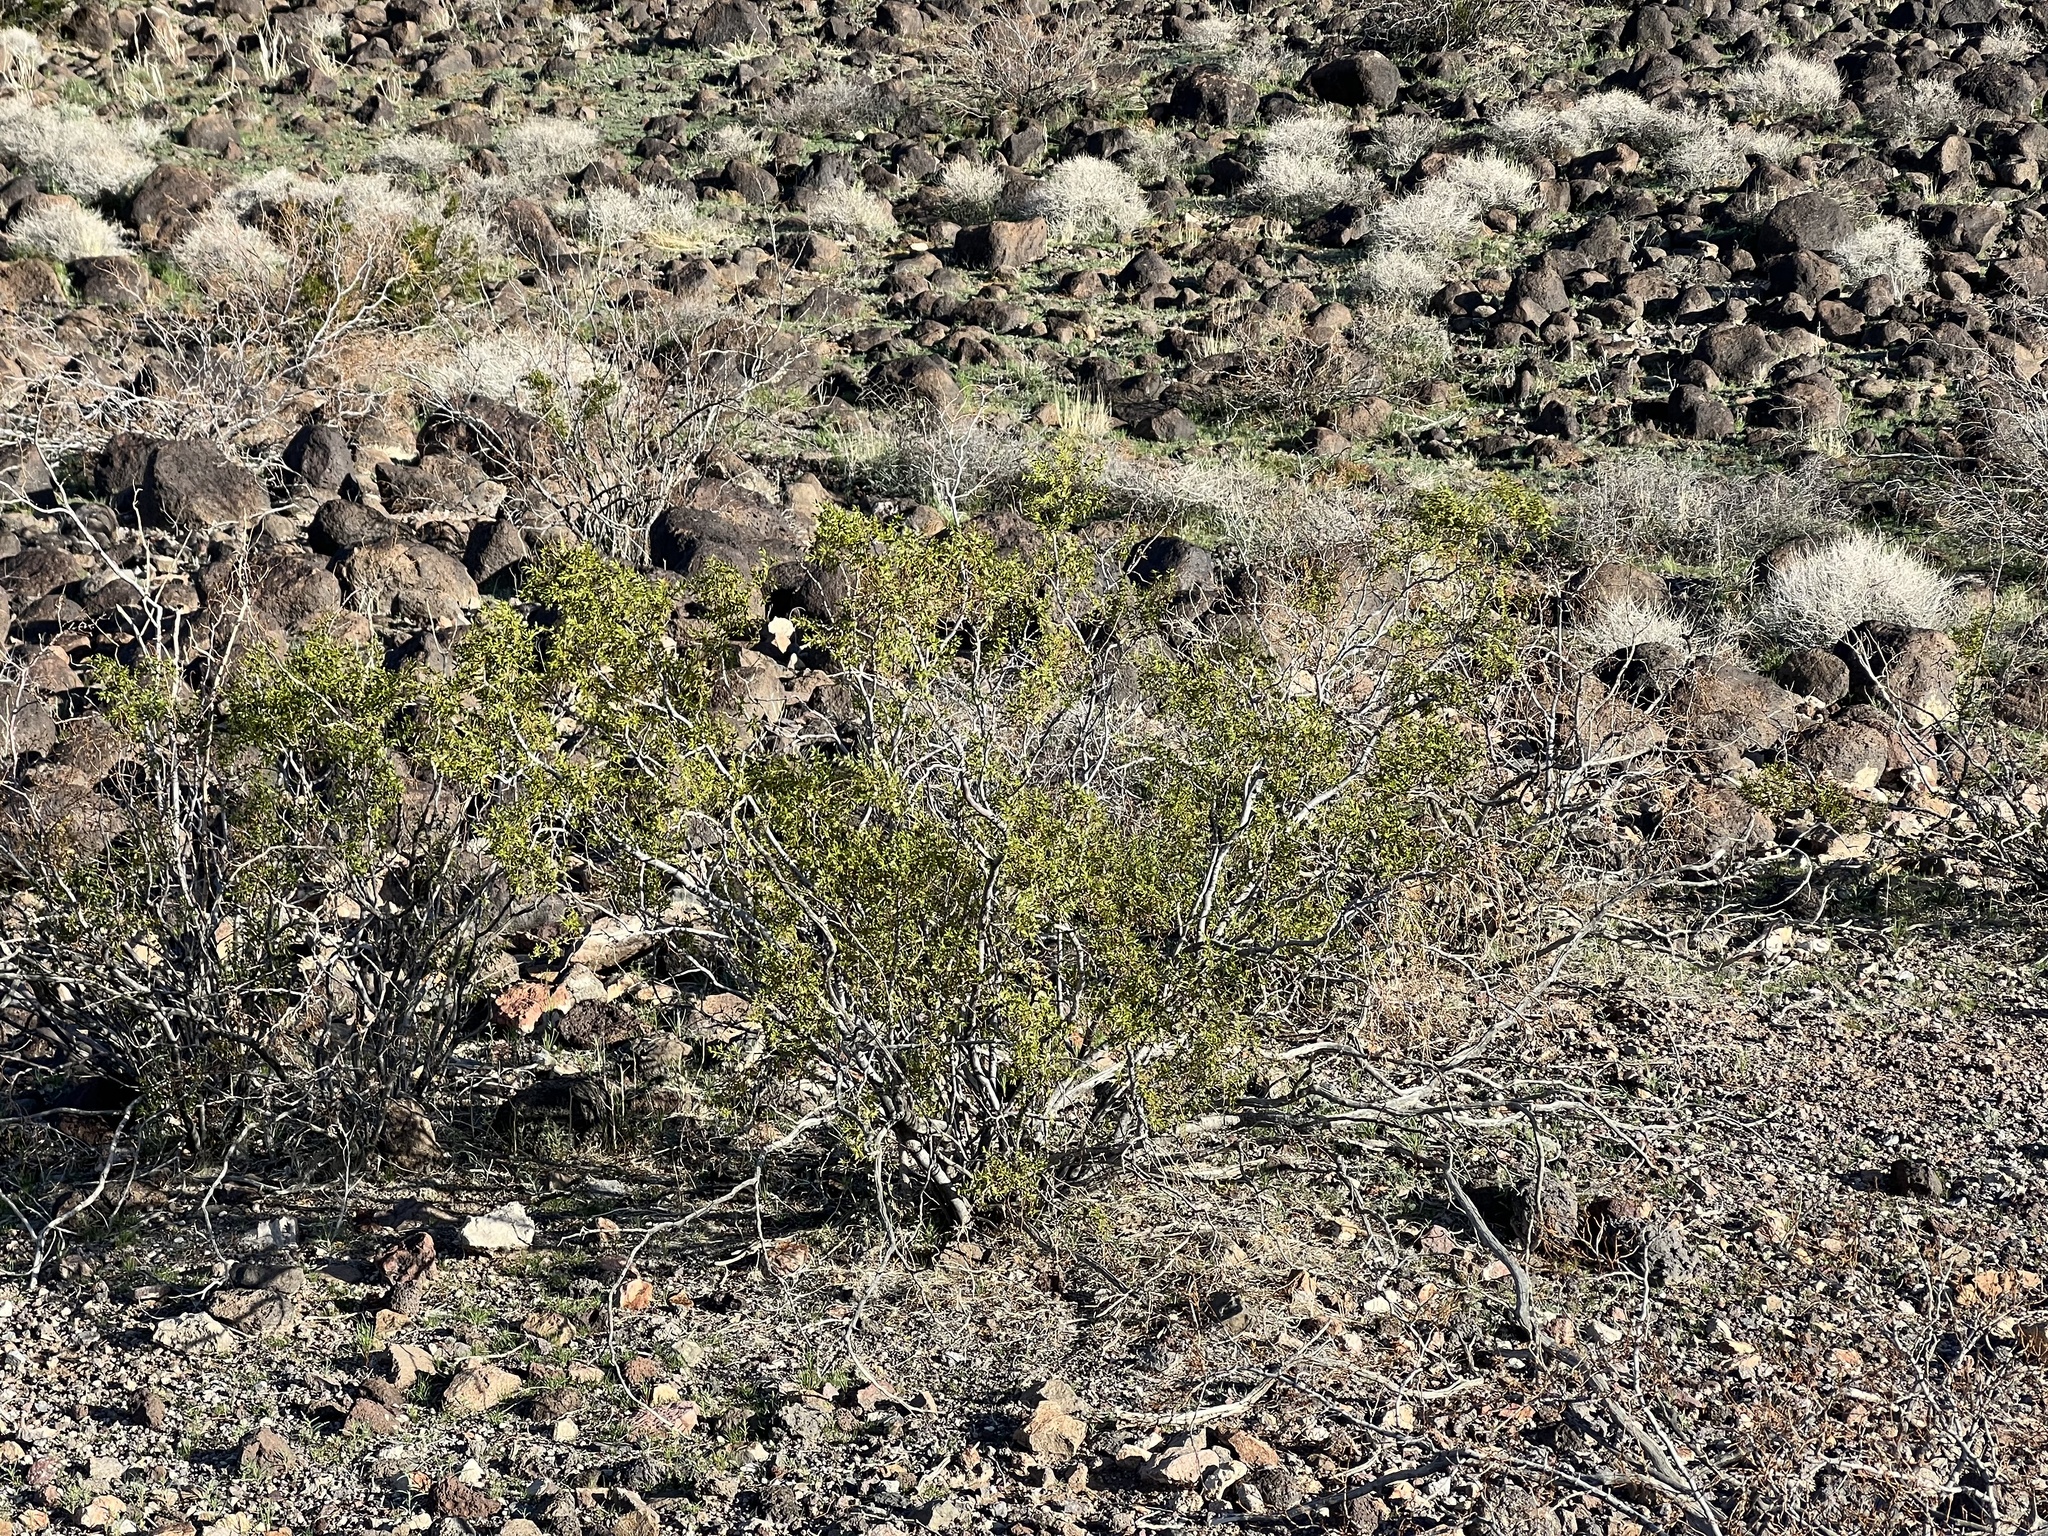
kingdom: Plantae
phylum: Tracheophyta
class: Magnoliopsida
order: Zygophyllales
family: Zygophyllaceae
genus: Larrea
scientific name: Larrea tridentata
